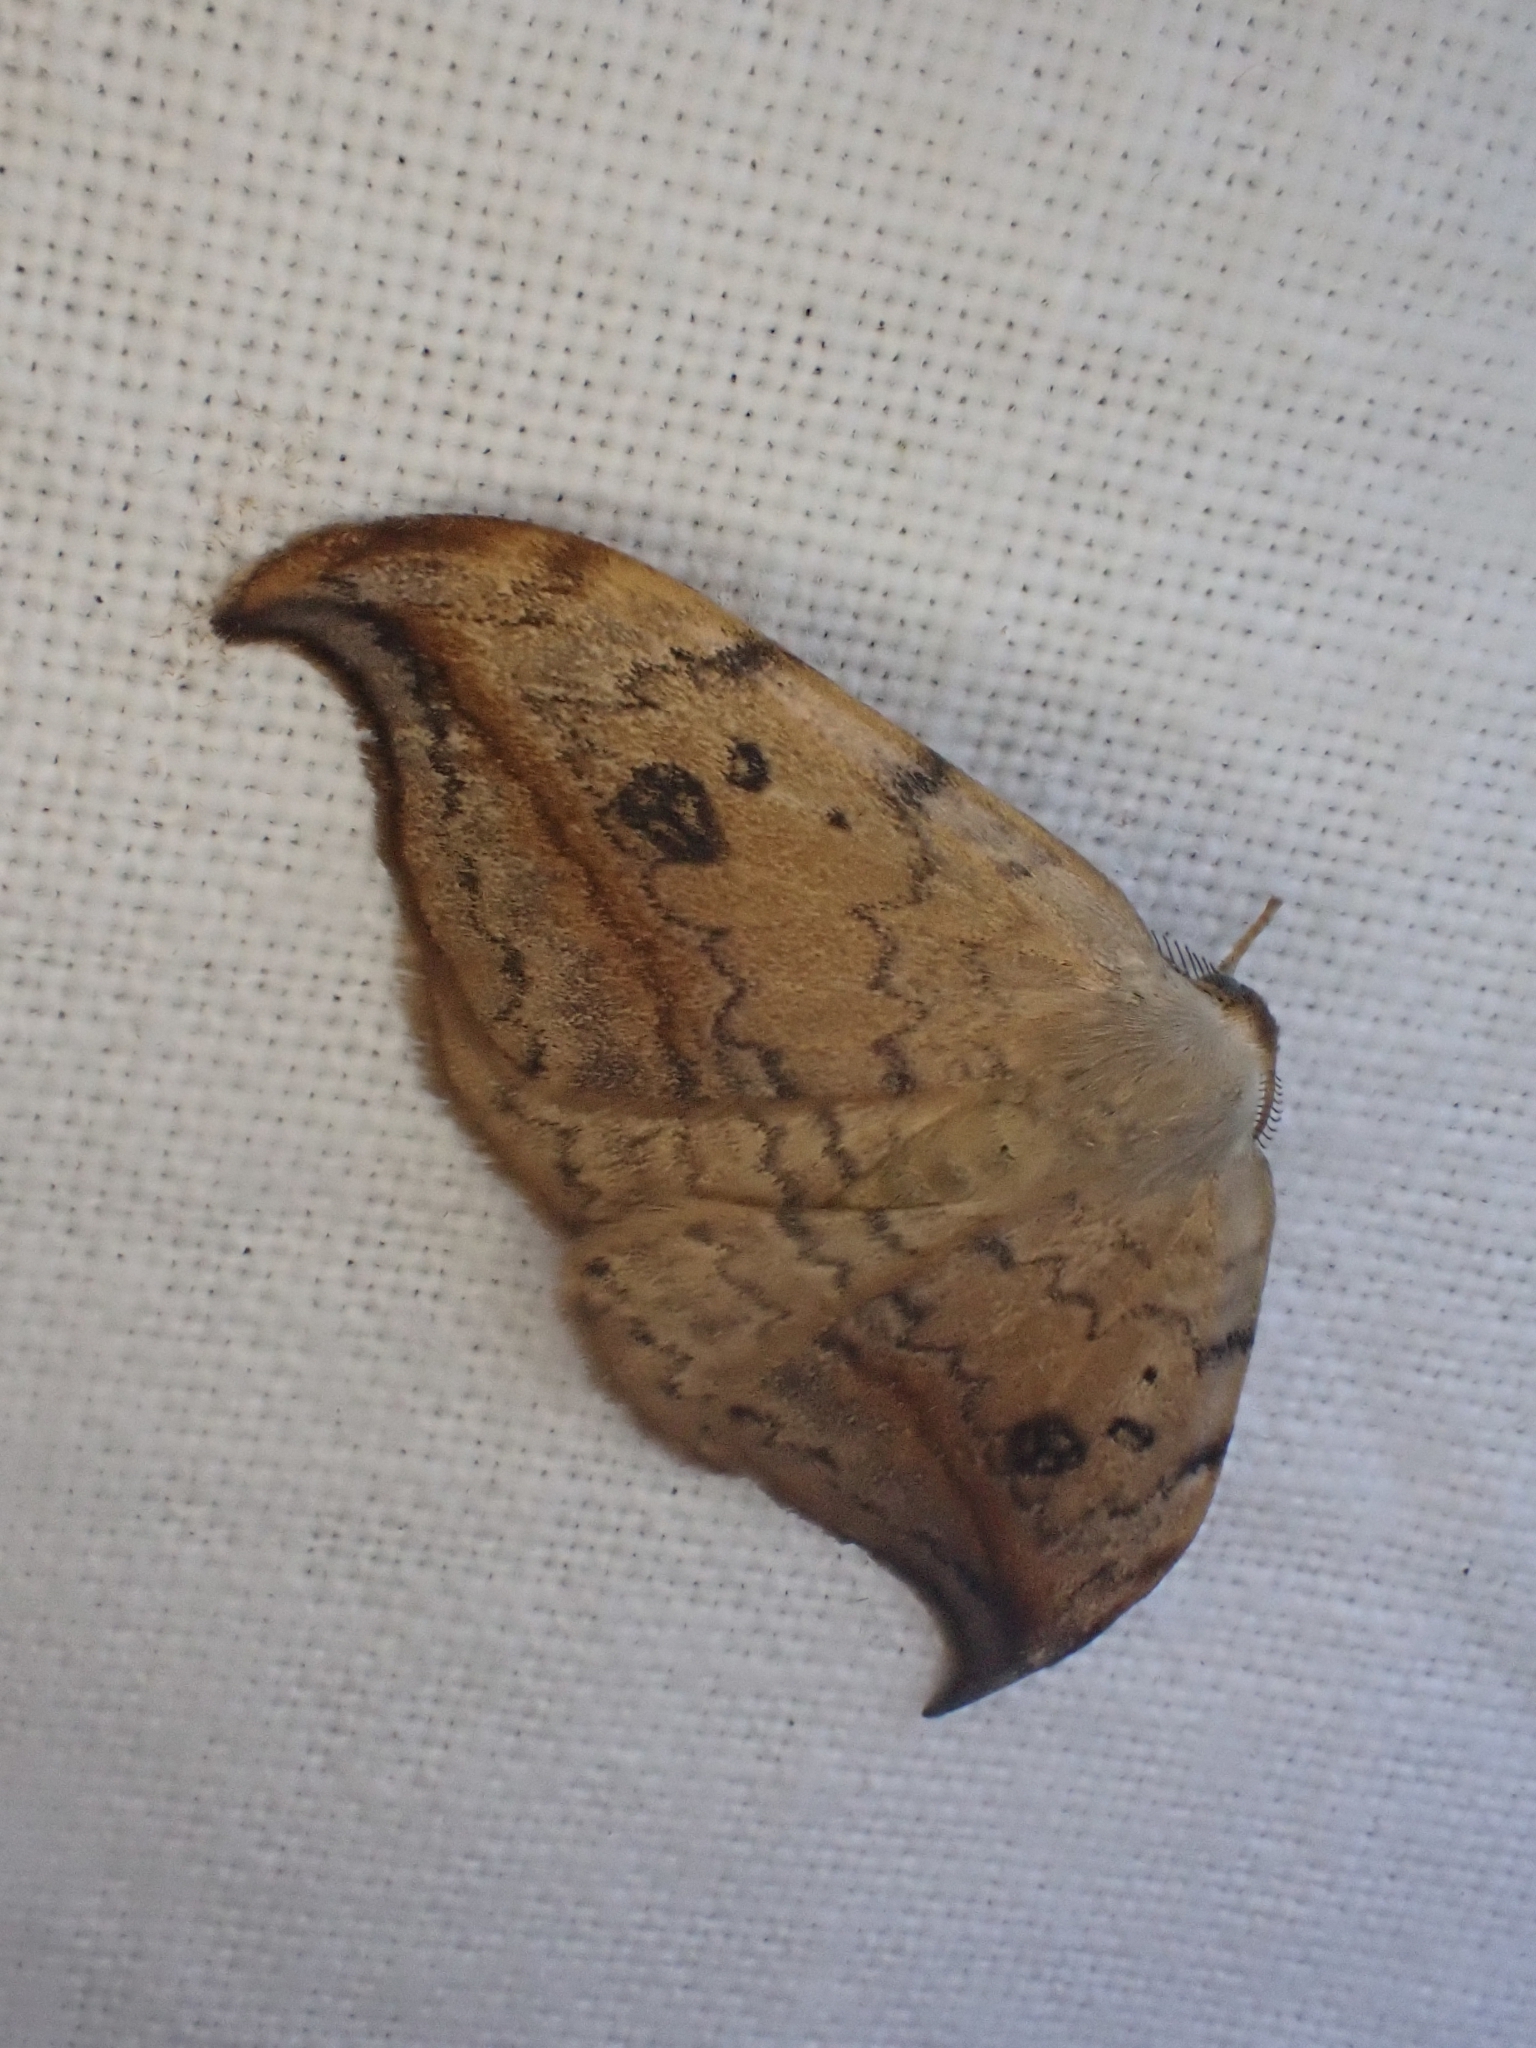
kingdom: Animalia
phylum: Arthropoda
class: Insecta
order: Lepidoptera
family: Drepanidae
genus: Drepana
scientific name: Drepana falcataria
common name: Pebble hook-tip
